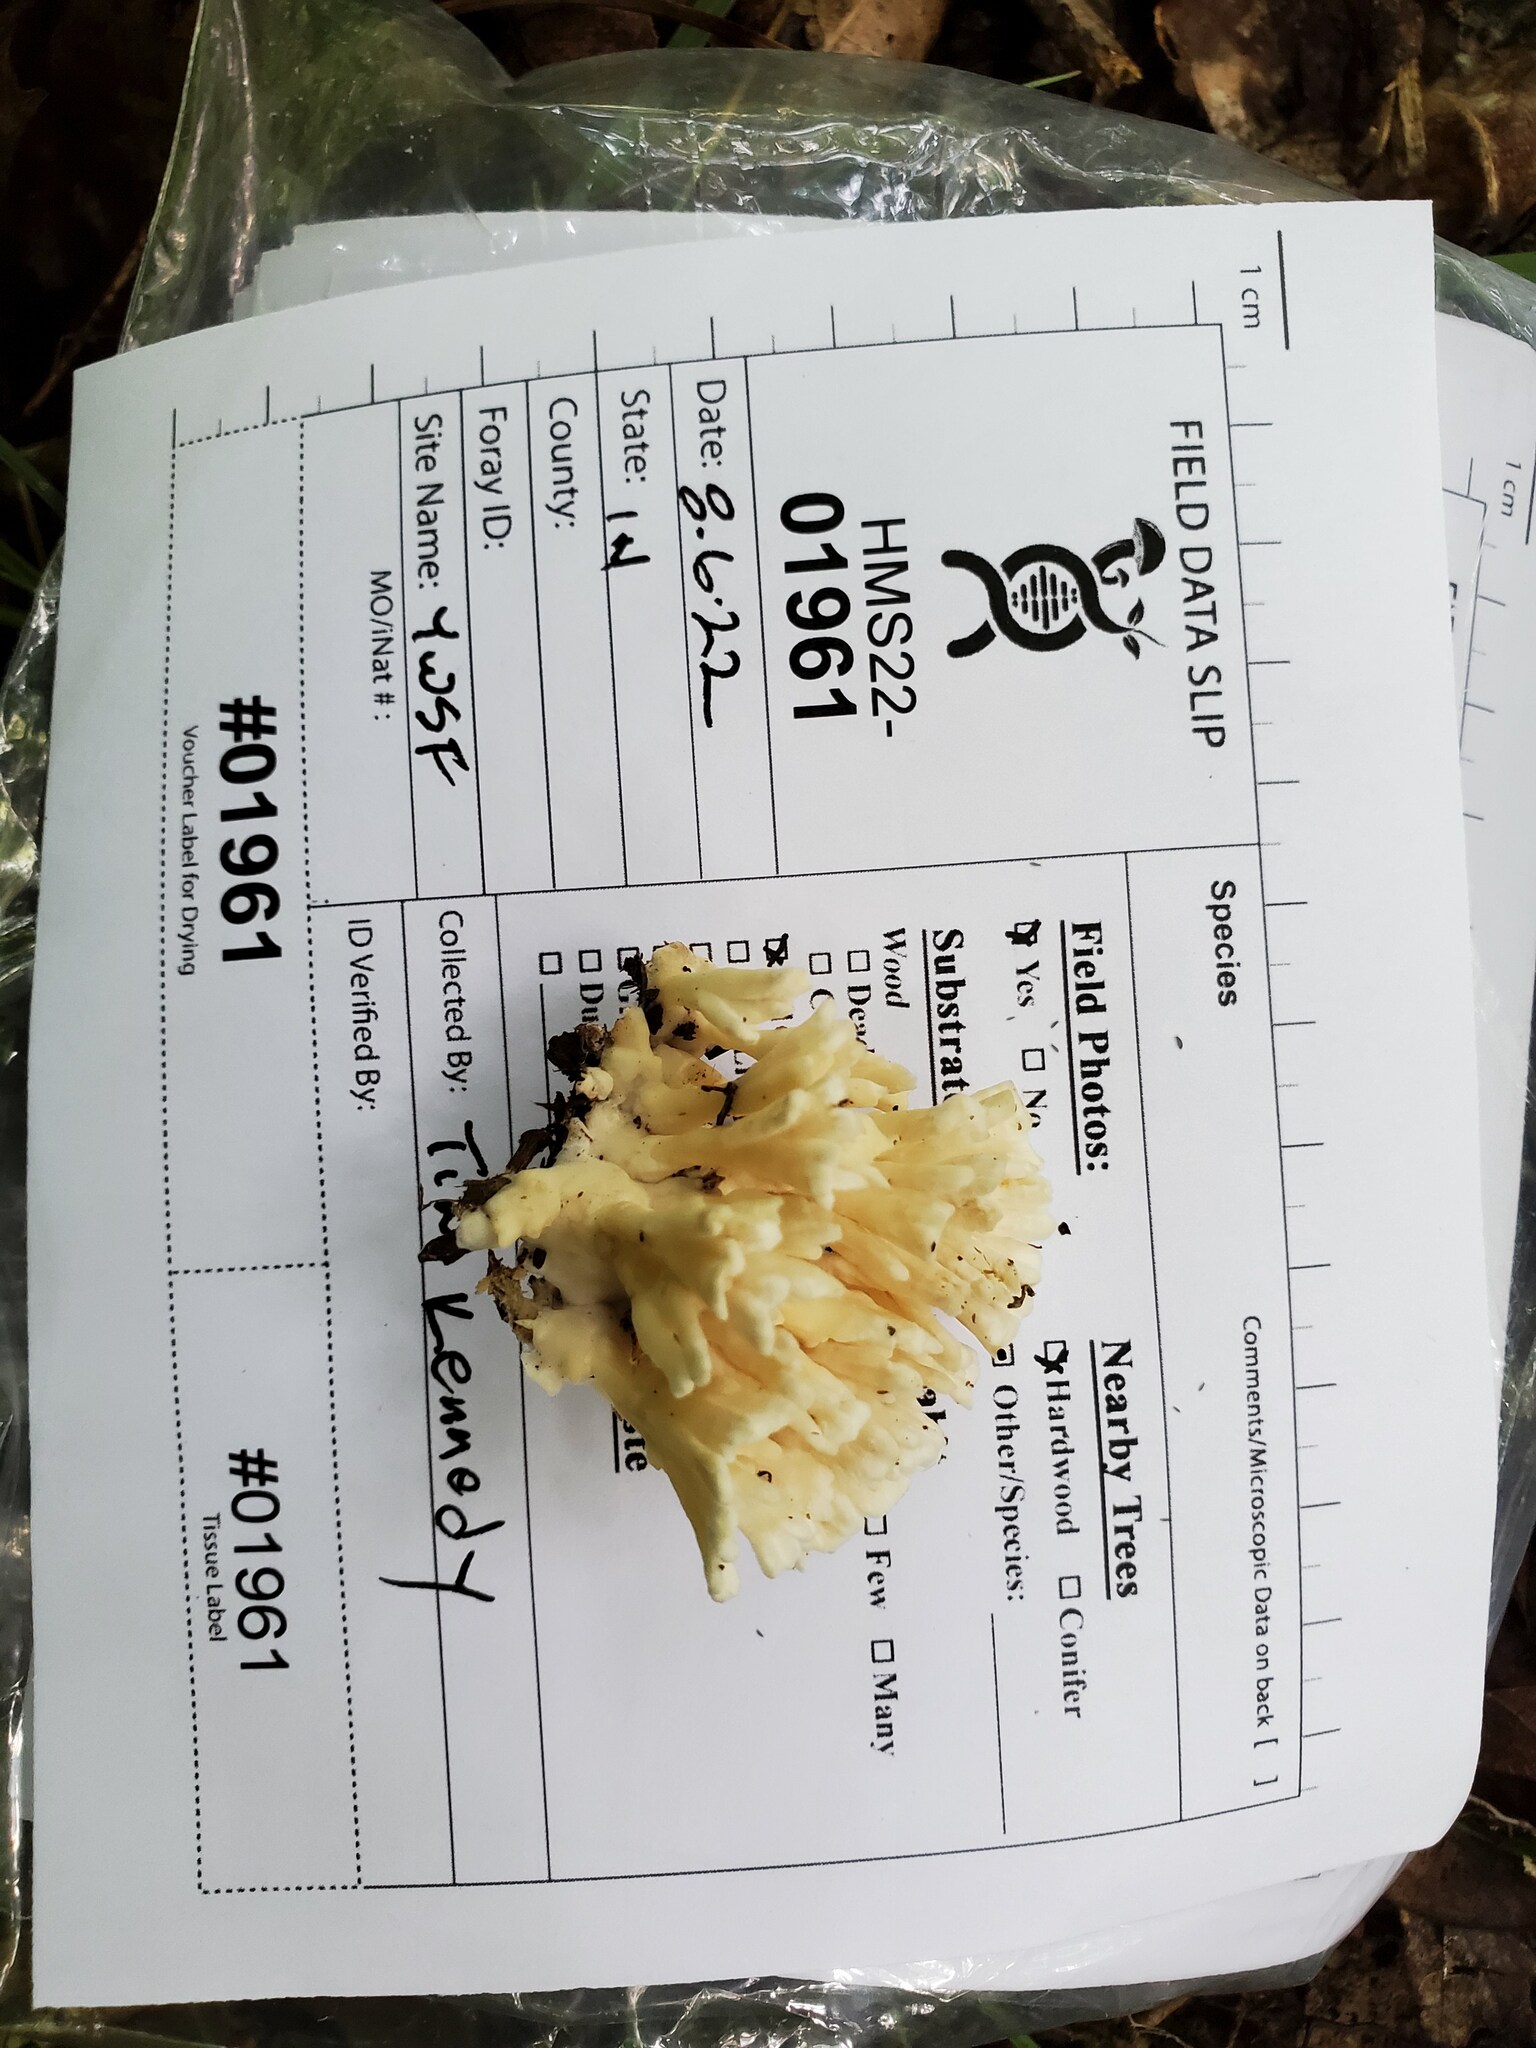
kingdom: Fungi
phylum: Basidiomycota
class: Agaricomycetes
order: Sebacinales
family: Sebacinaceae
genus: Sebacina
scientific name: Sebacina schweinitzii
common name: Jellied false coral fungus
